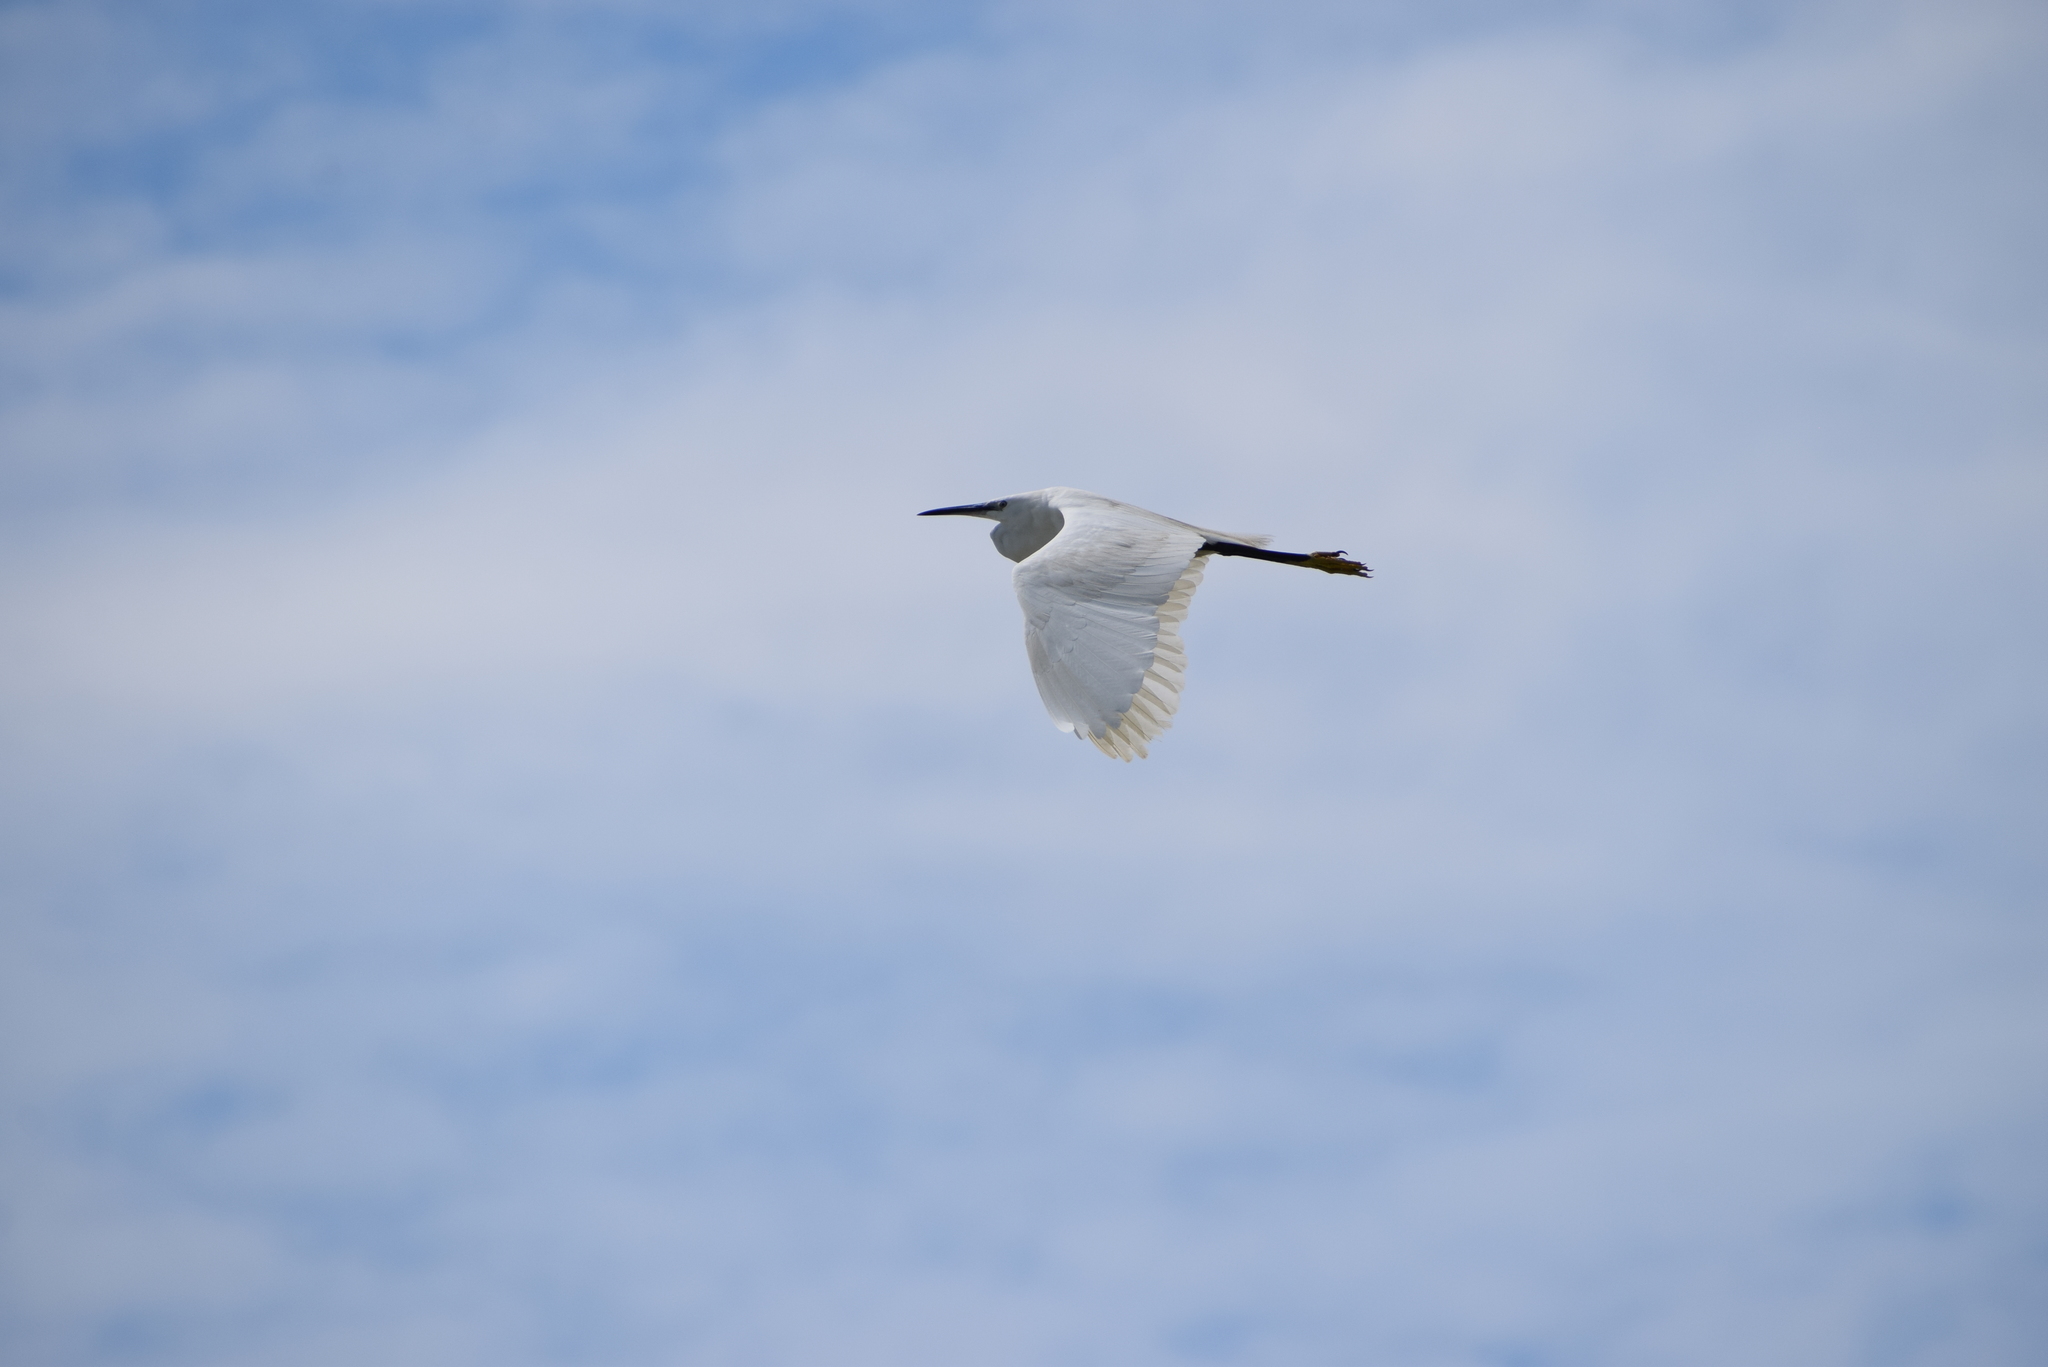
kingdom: Animalia
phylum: Chordata
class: Aves
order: Pelecaniformes
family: Ardeidae
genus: Egretta
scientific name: Egretta garzetta
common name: Little egret
